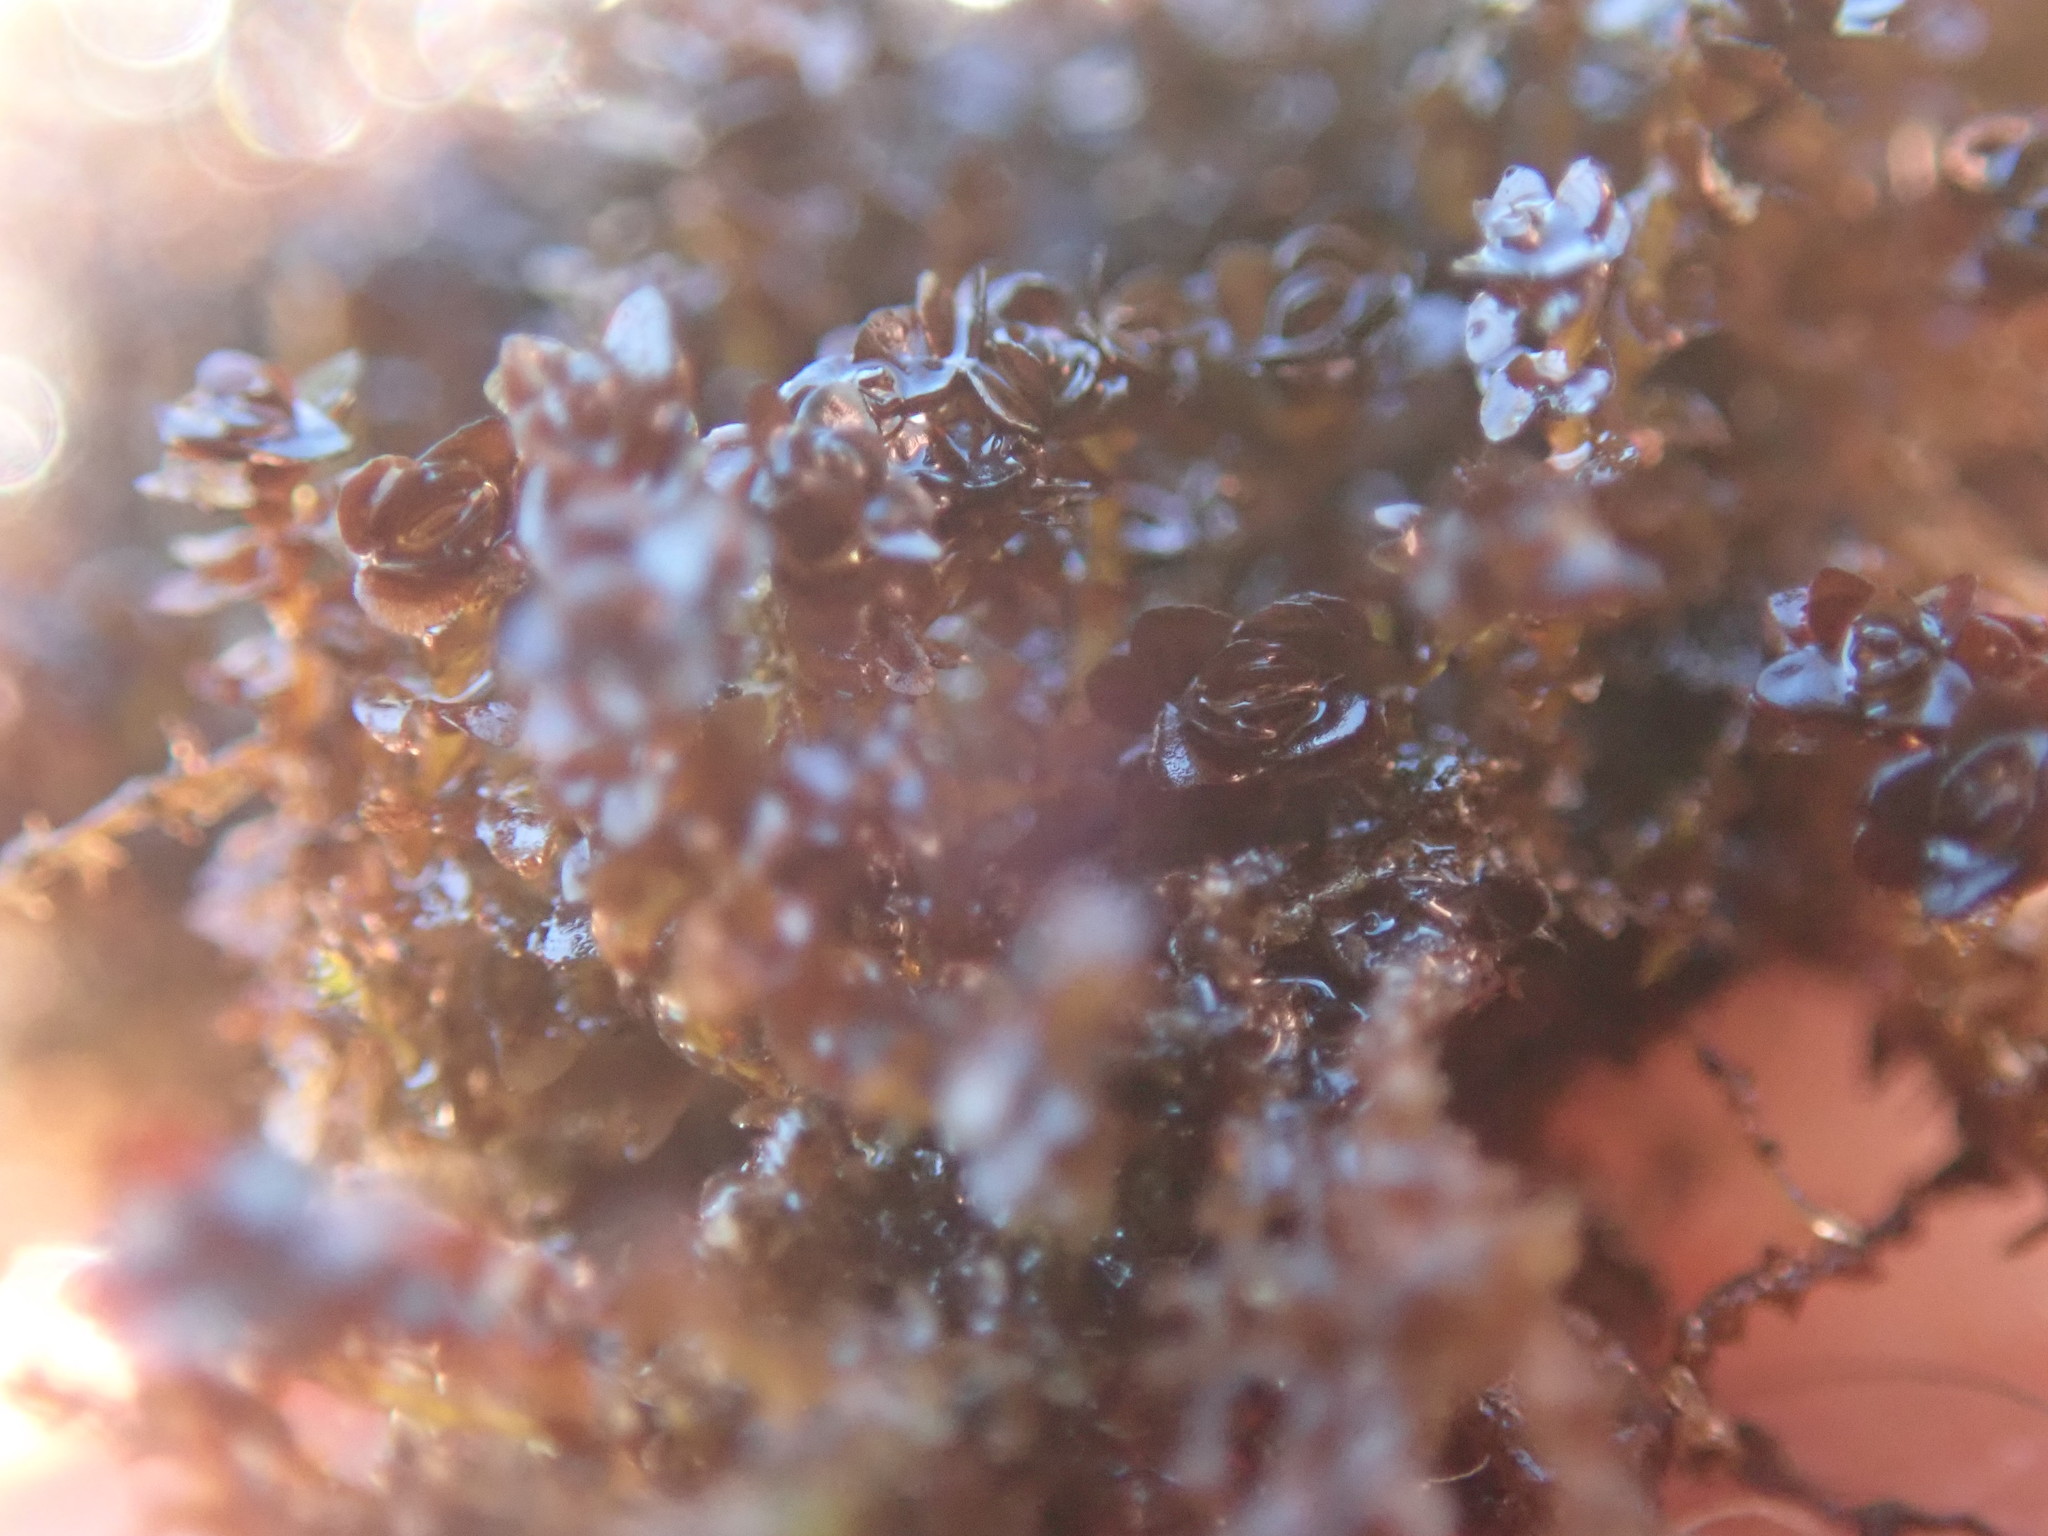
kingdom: Plantae
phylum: Marchantiophyta
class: Jungermanniopsida
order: Jungermanniales
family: Gymnomitriaceae
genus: Marsupella
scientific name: Marsupella emarginata
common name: Notched rustwort
